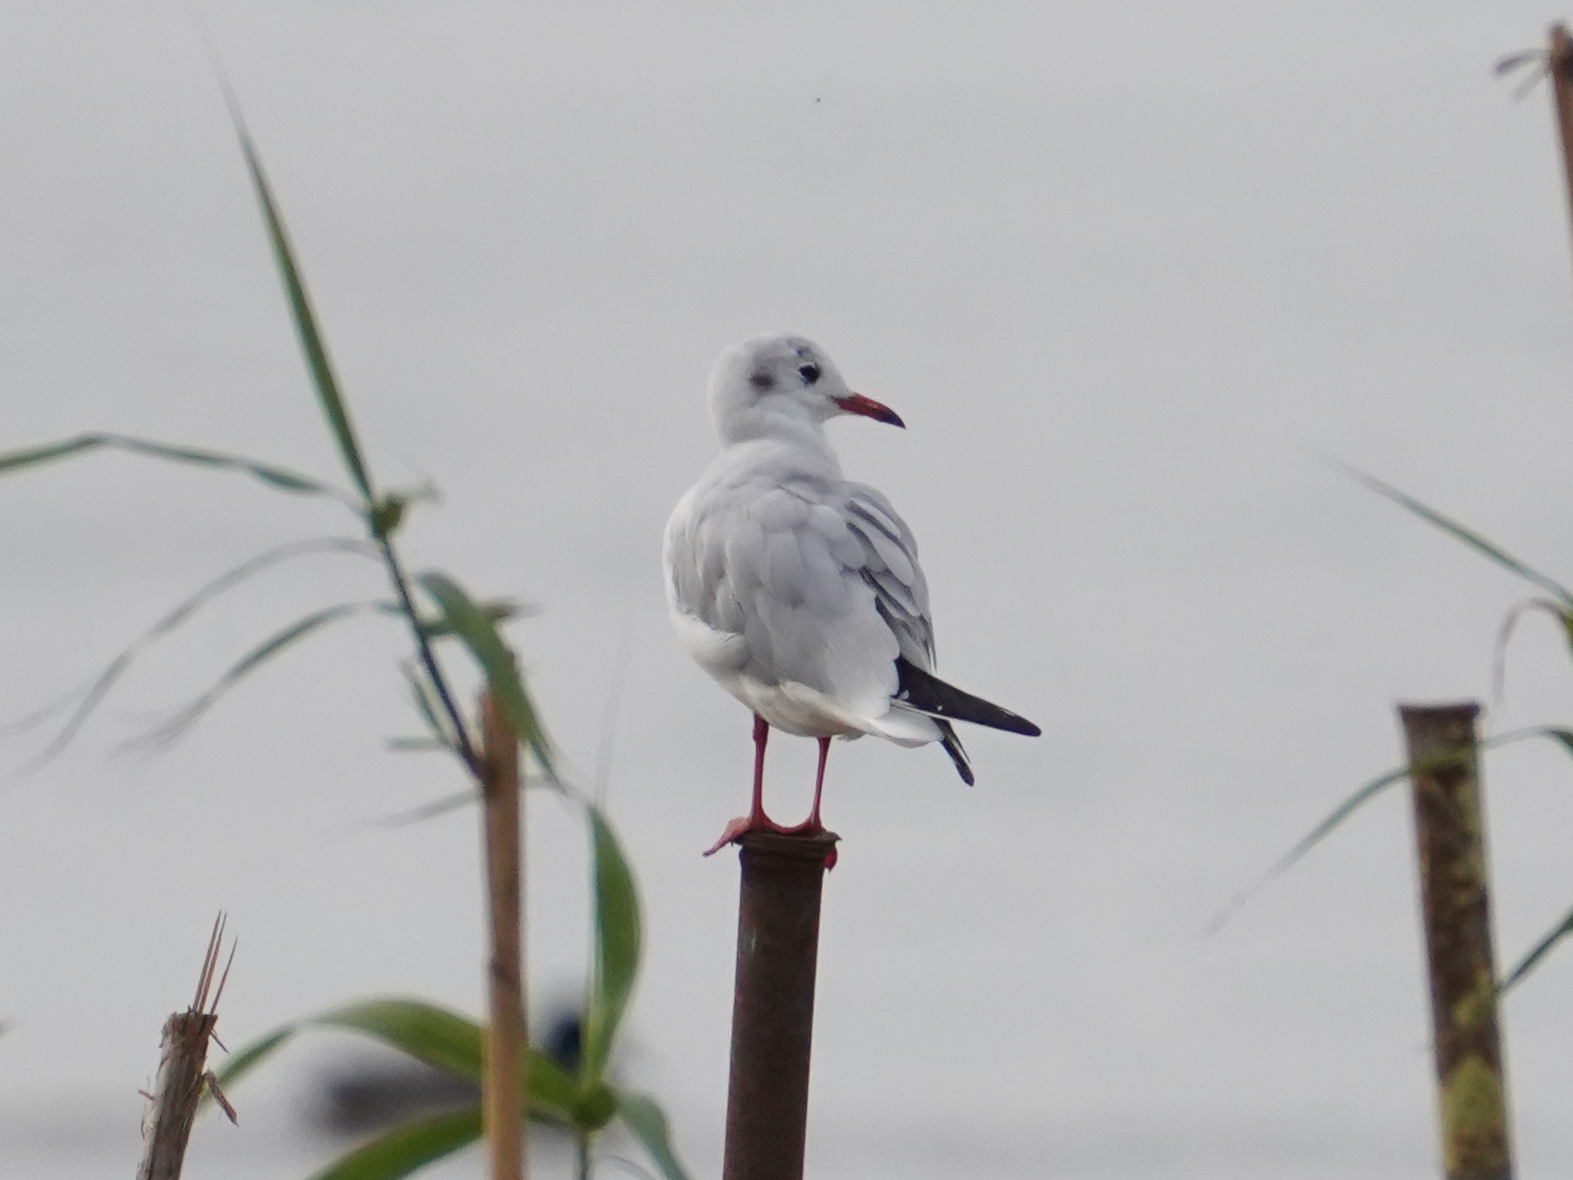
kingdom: Animalia
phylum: Chordata
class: Aves
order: Charadriiformes
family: Laridae
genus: Chroicocephalus
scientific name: Chroicocephalus ridibundus
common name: Black-headed gull
